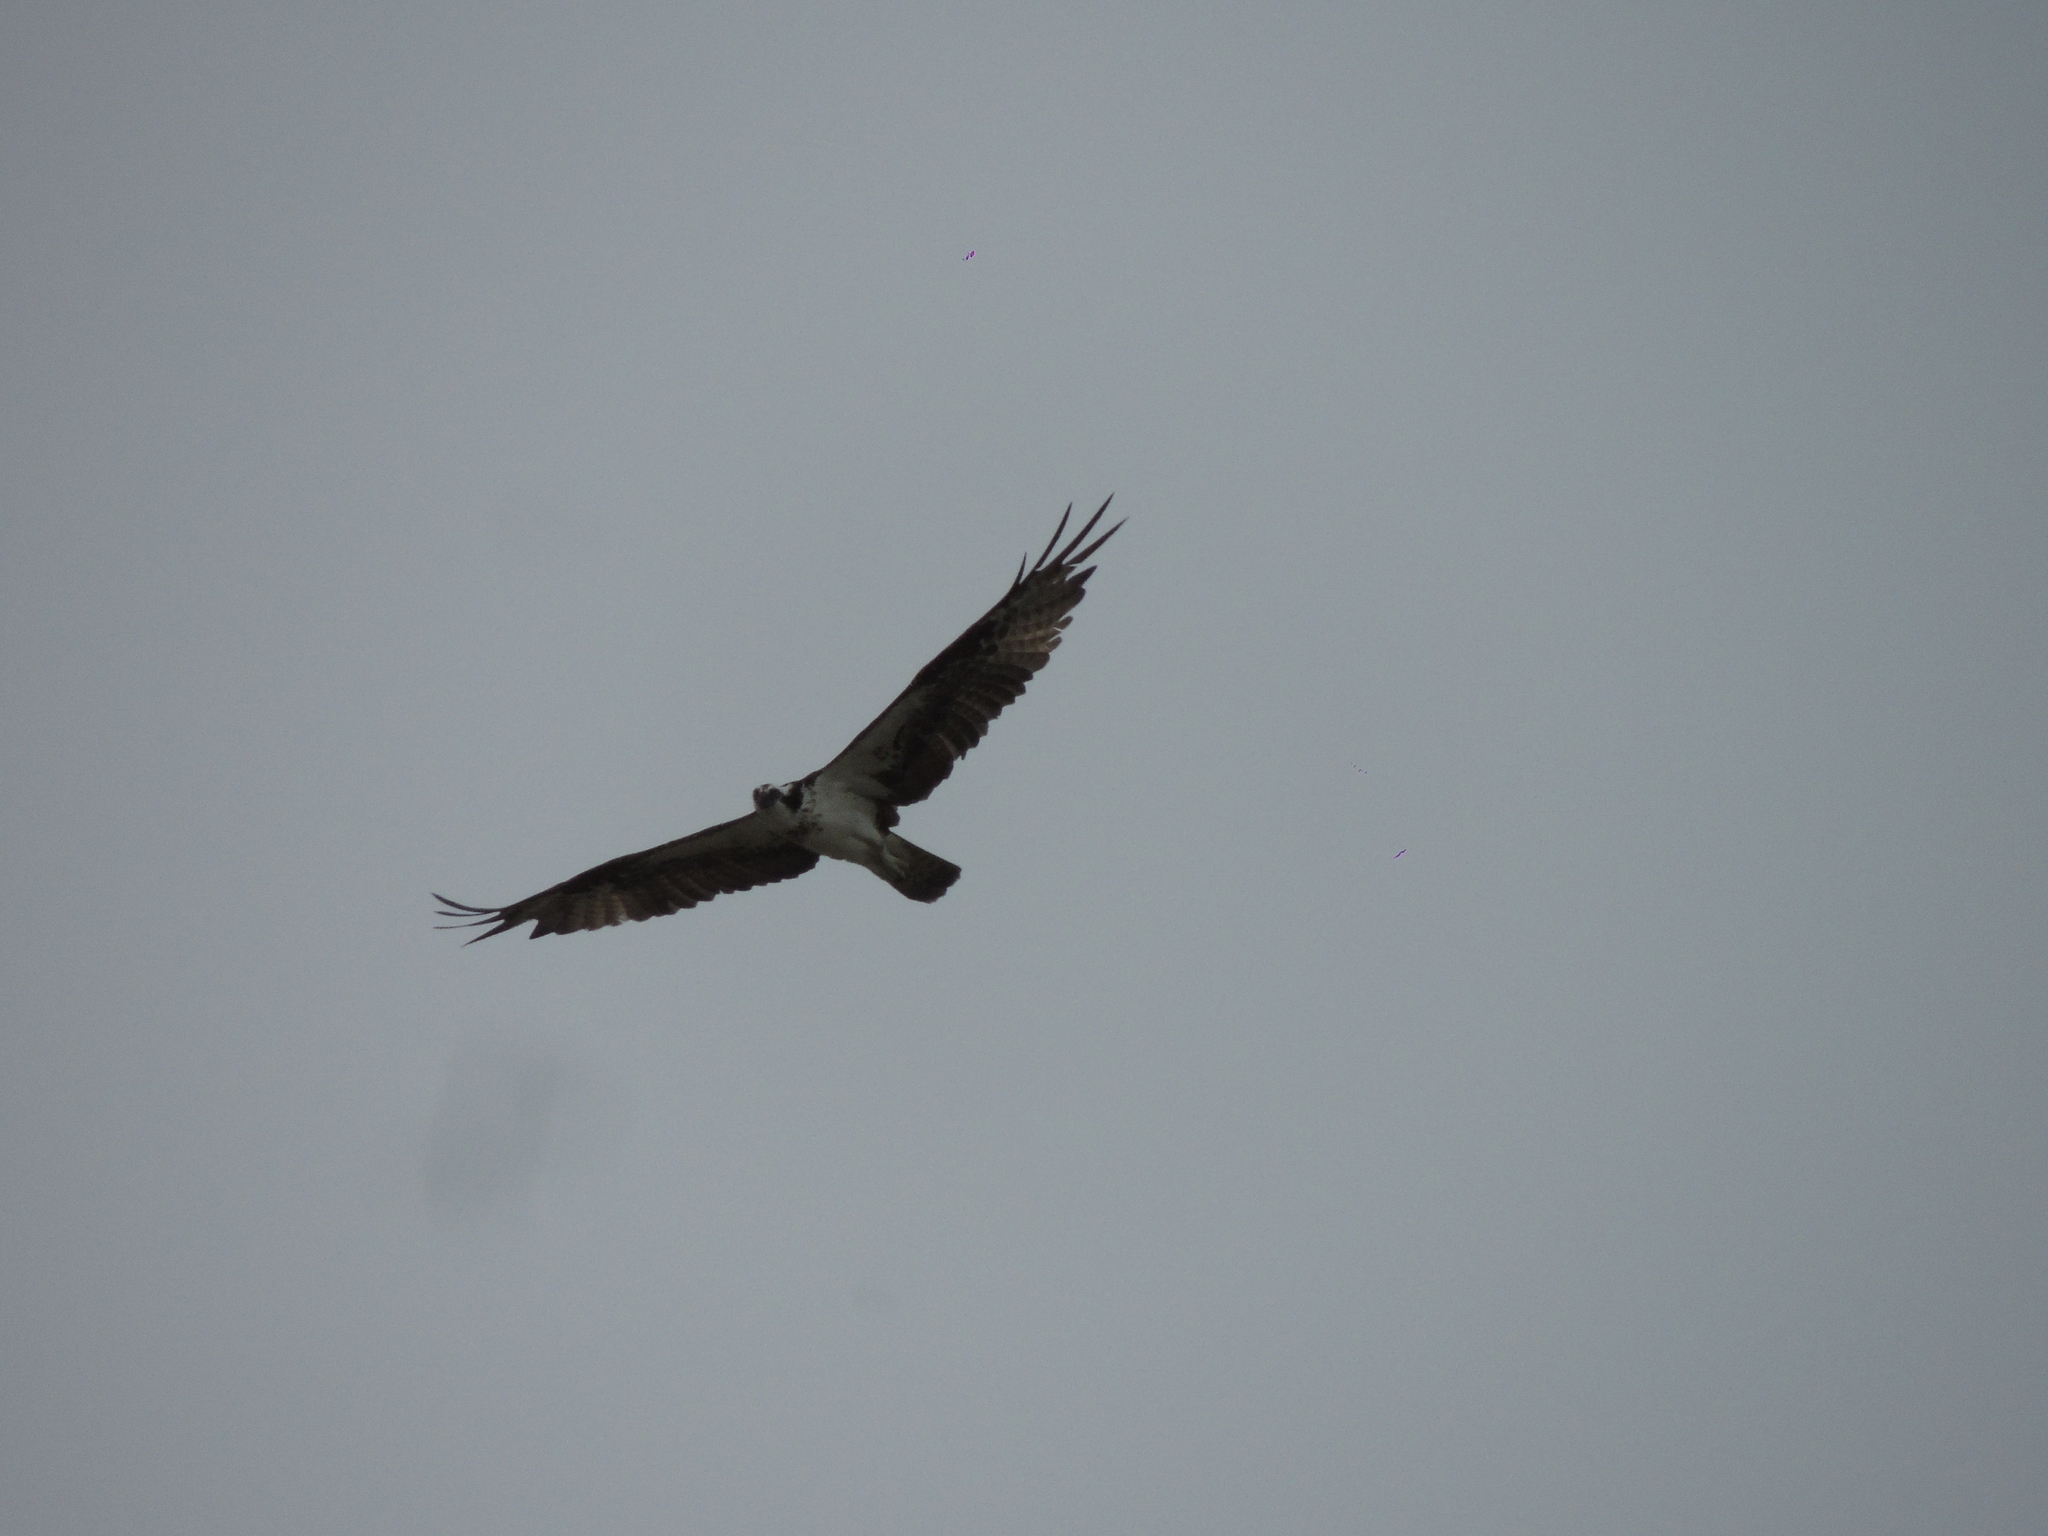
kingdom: Animalia
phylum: Chordata
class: Aves
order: Accipitriformes
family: Pandionidae
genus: Pandion
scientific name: Pandion haliaetus
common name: Osprey
